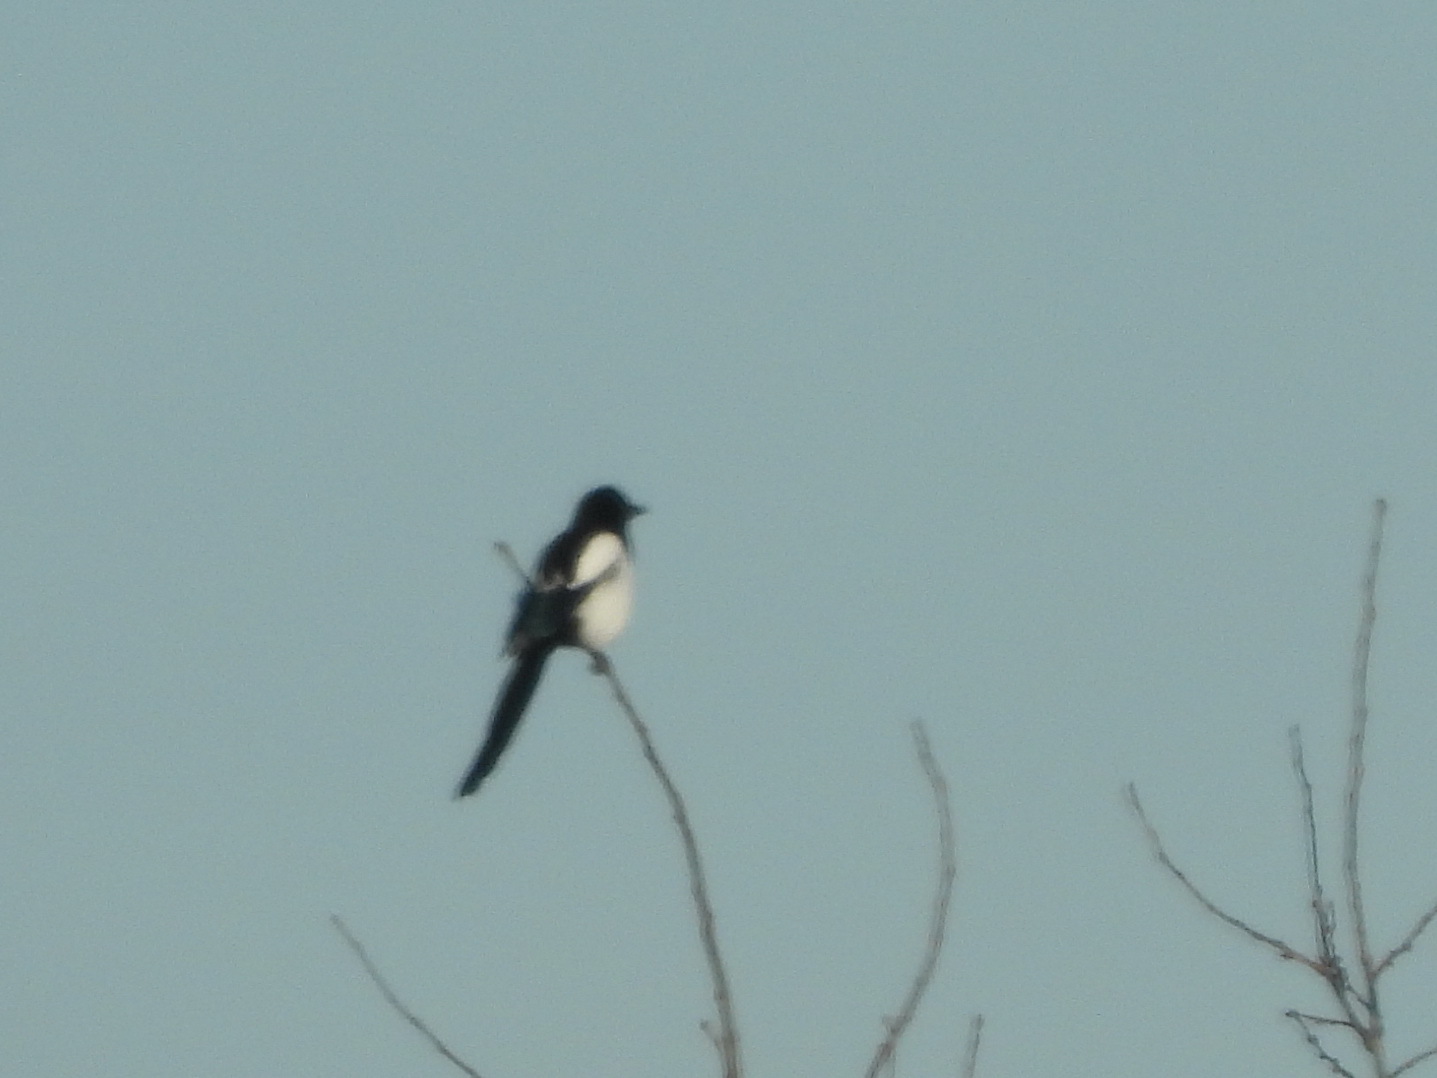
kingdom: Animalia
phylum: Chordata
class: Aves
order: Passeriformes
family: Corvidae
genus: Pica
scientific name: Pica pica
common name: Eurasian magpie
